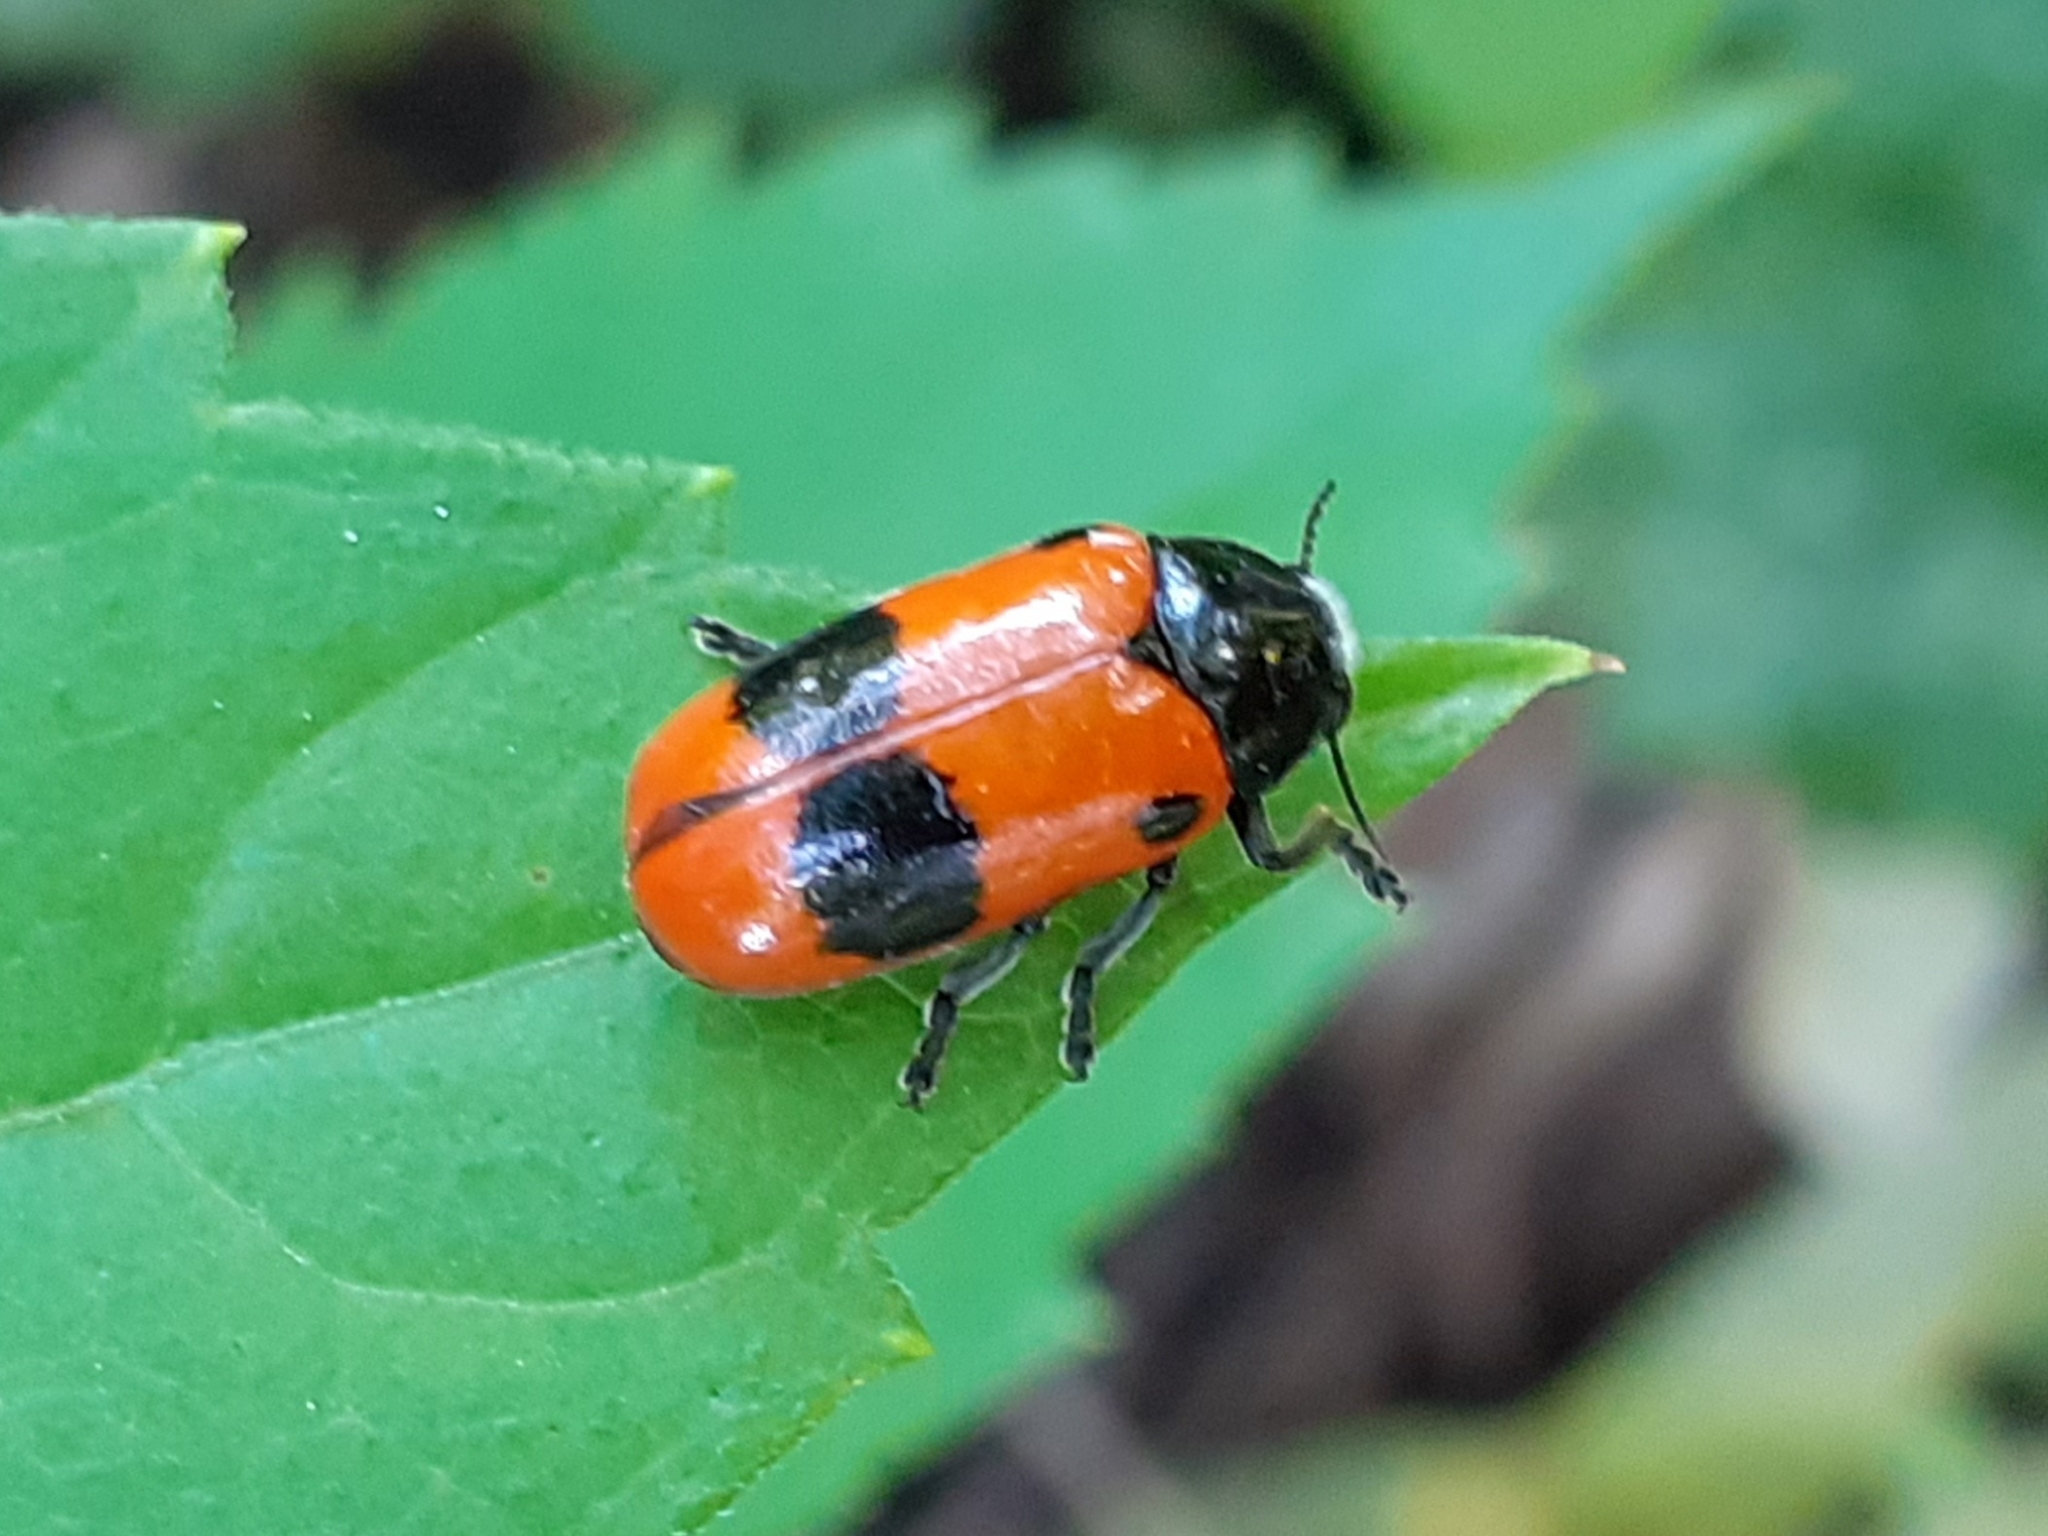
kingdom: Animalia
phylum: Arthropoda
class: Insecta
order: Coleoptera
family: Chrysomelidae
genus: Clytra
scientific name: Clytra laeviuscula
